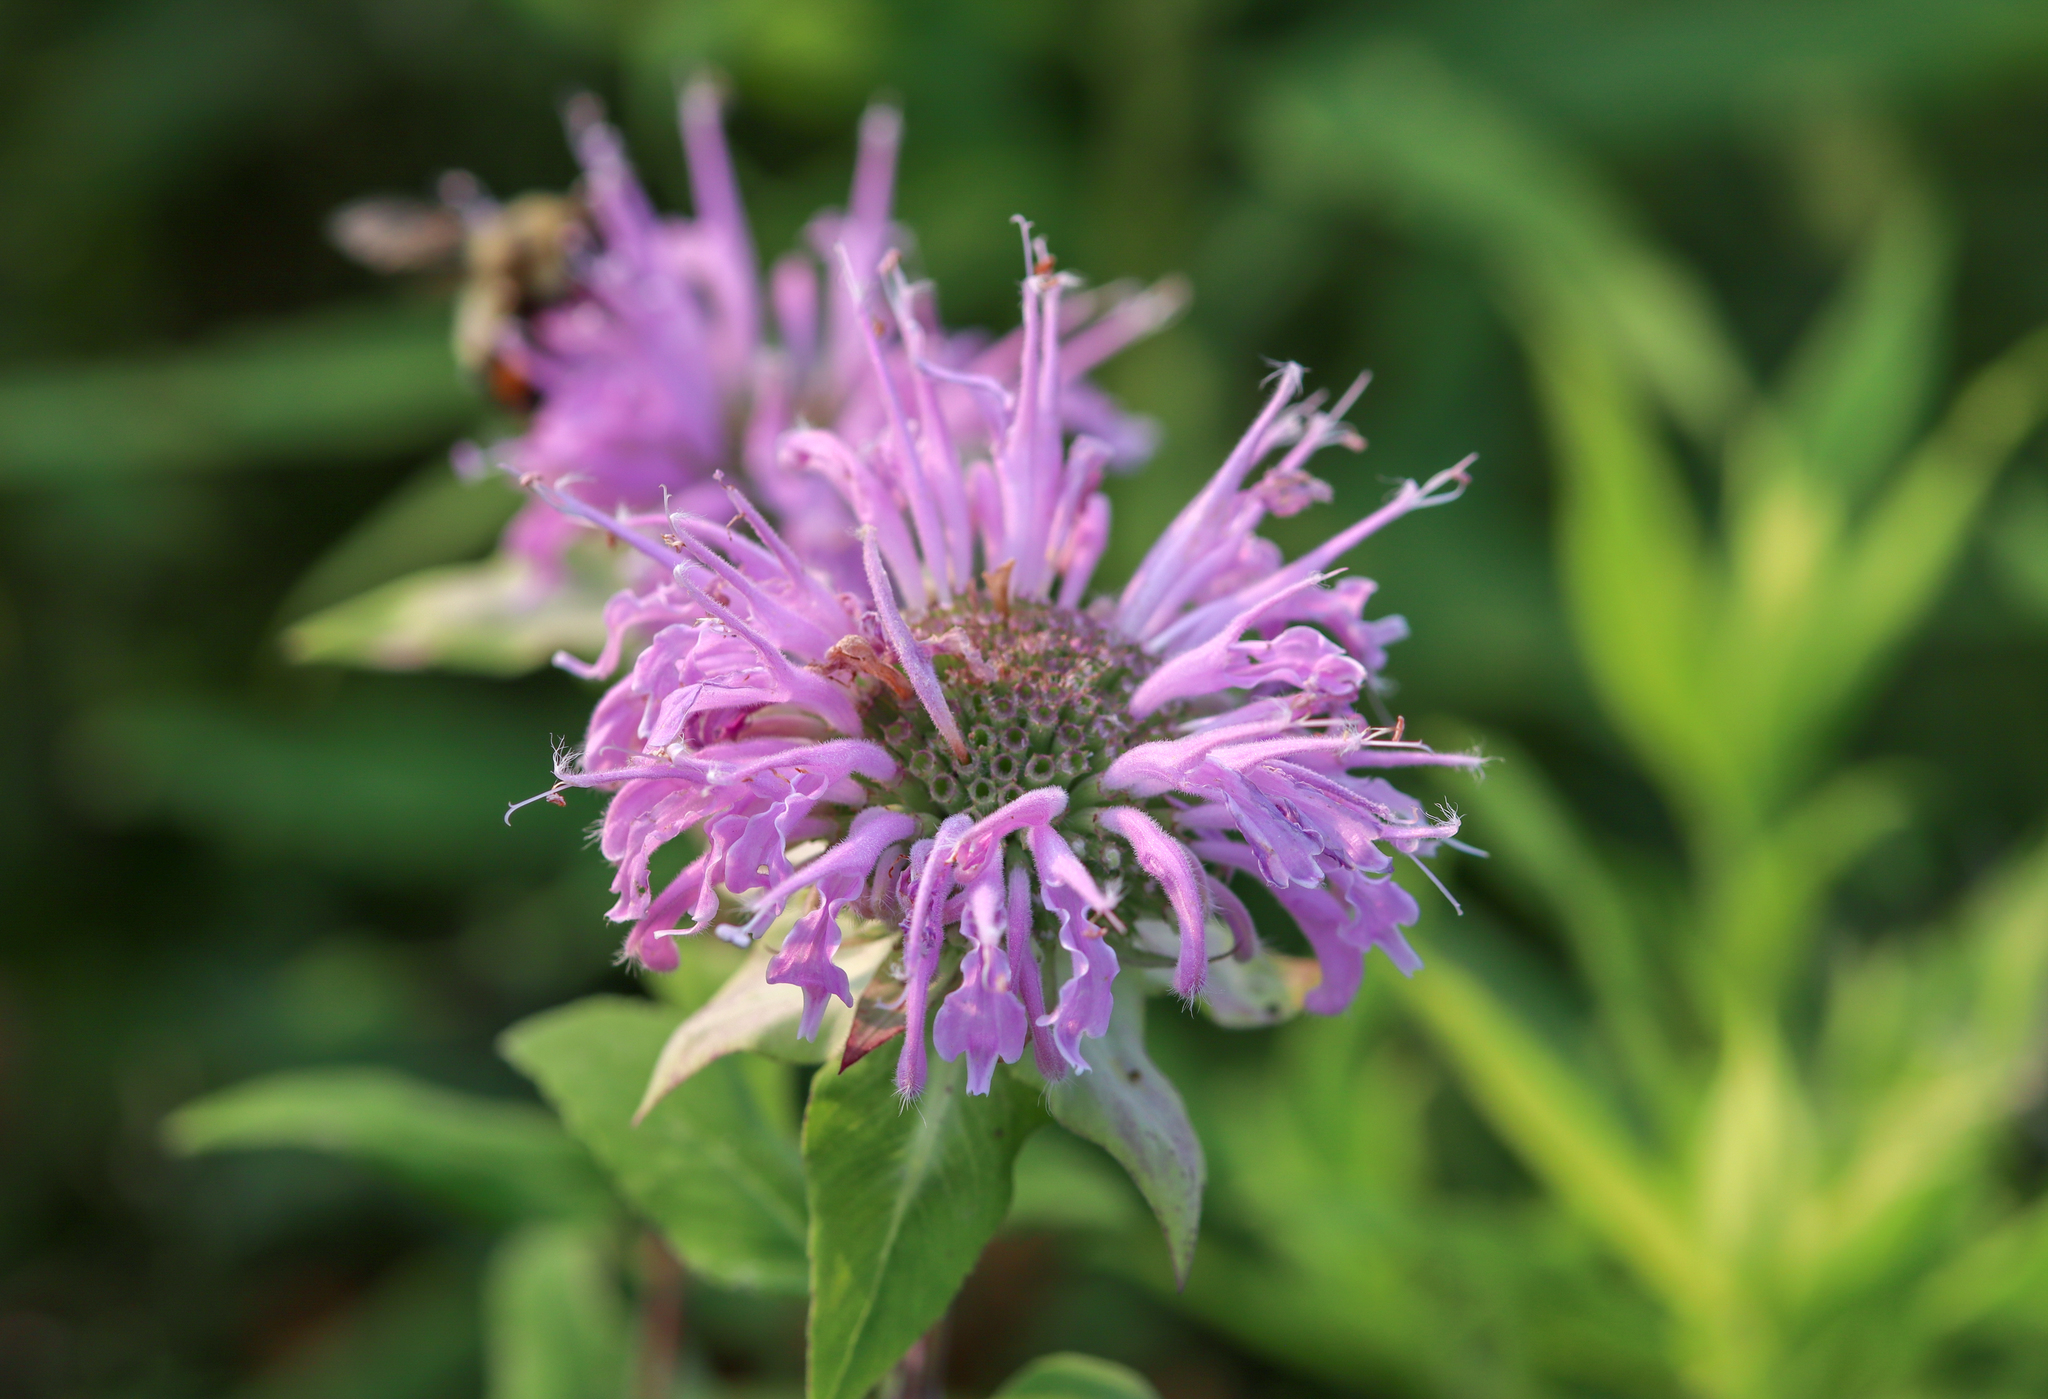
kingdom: Plantae
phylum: Tracheophyta
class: Magnoliopsida
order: Lamiales
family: Lamiaceae
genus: Monarda
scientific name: Monarda fistulosa
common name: Purple beebalm
